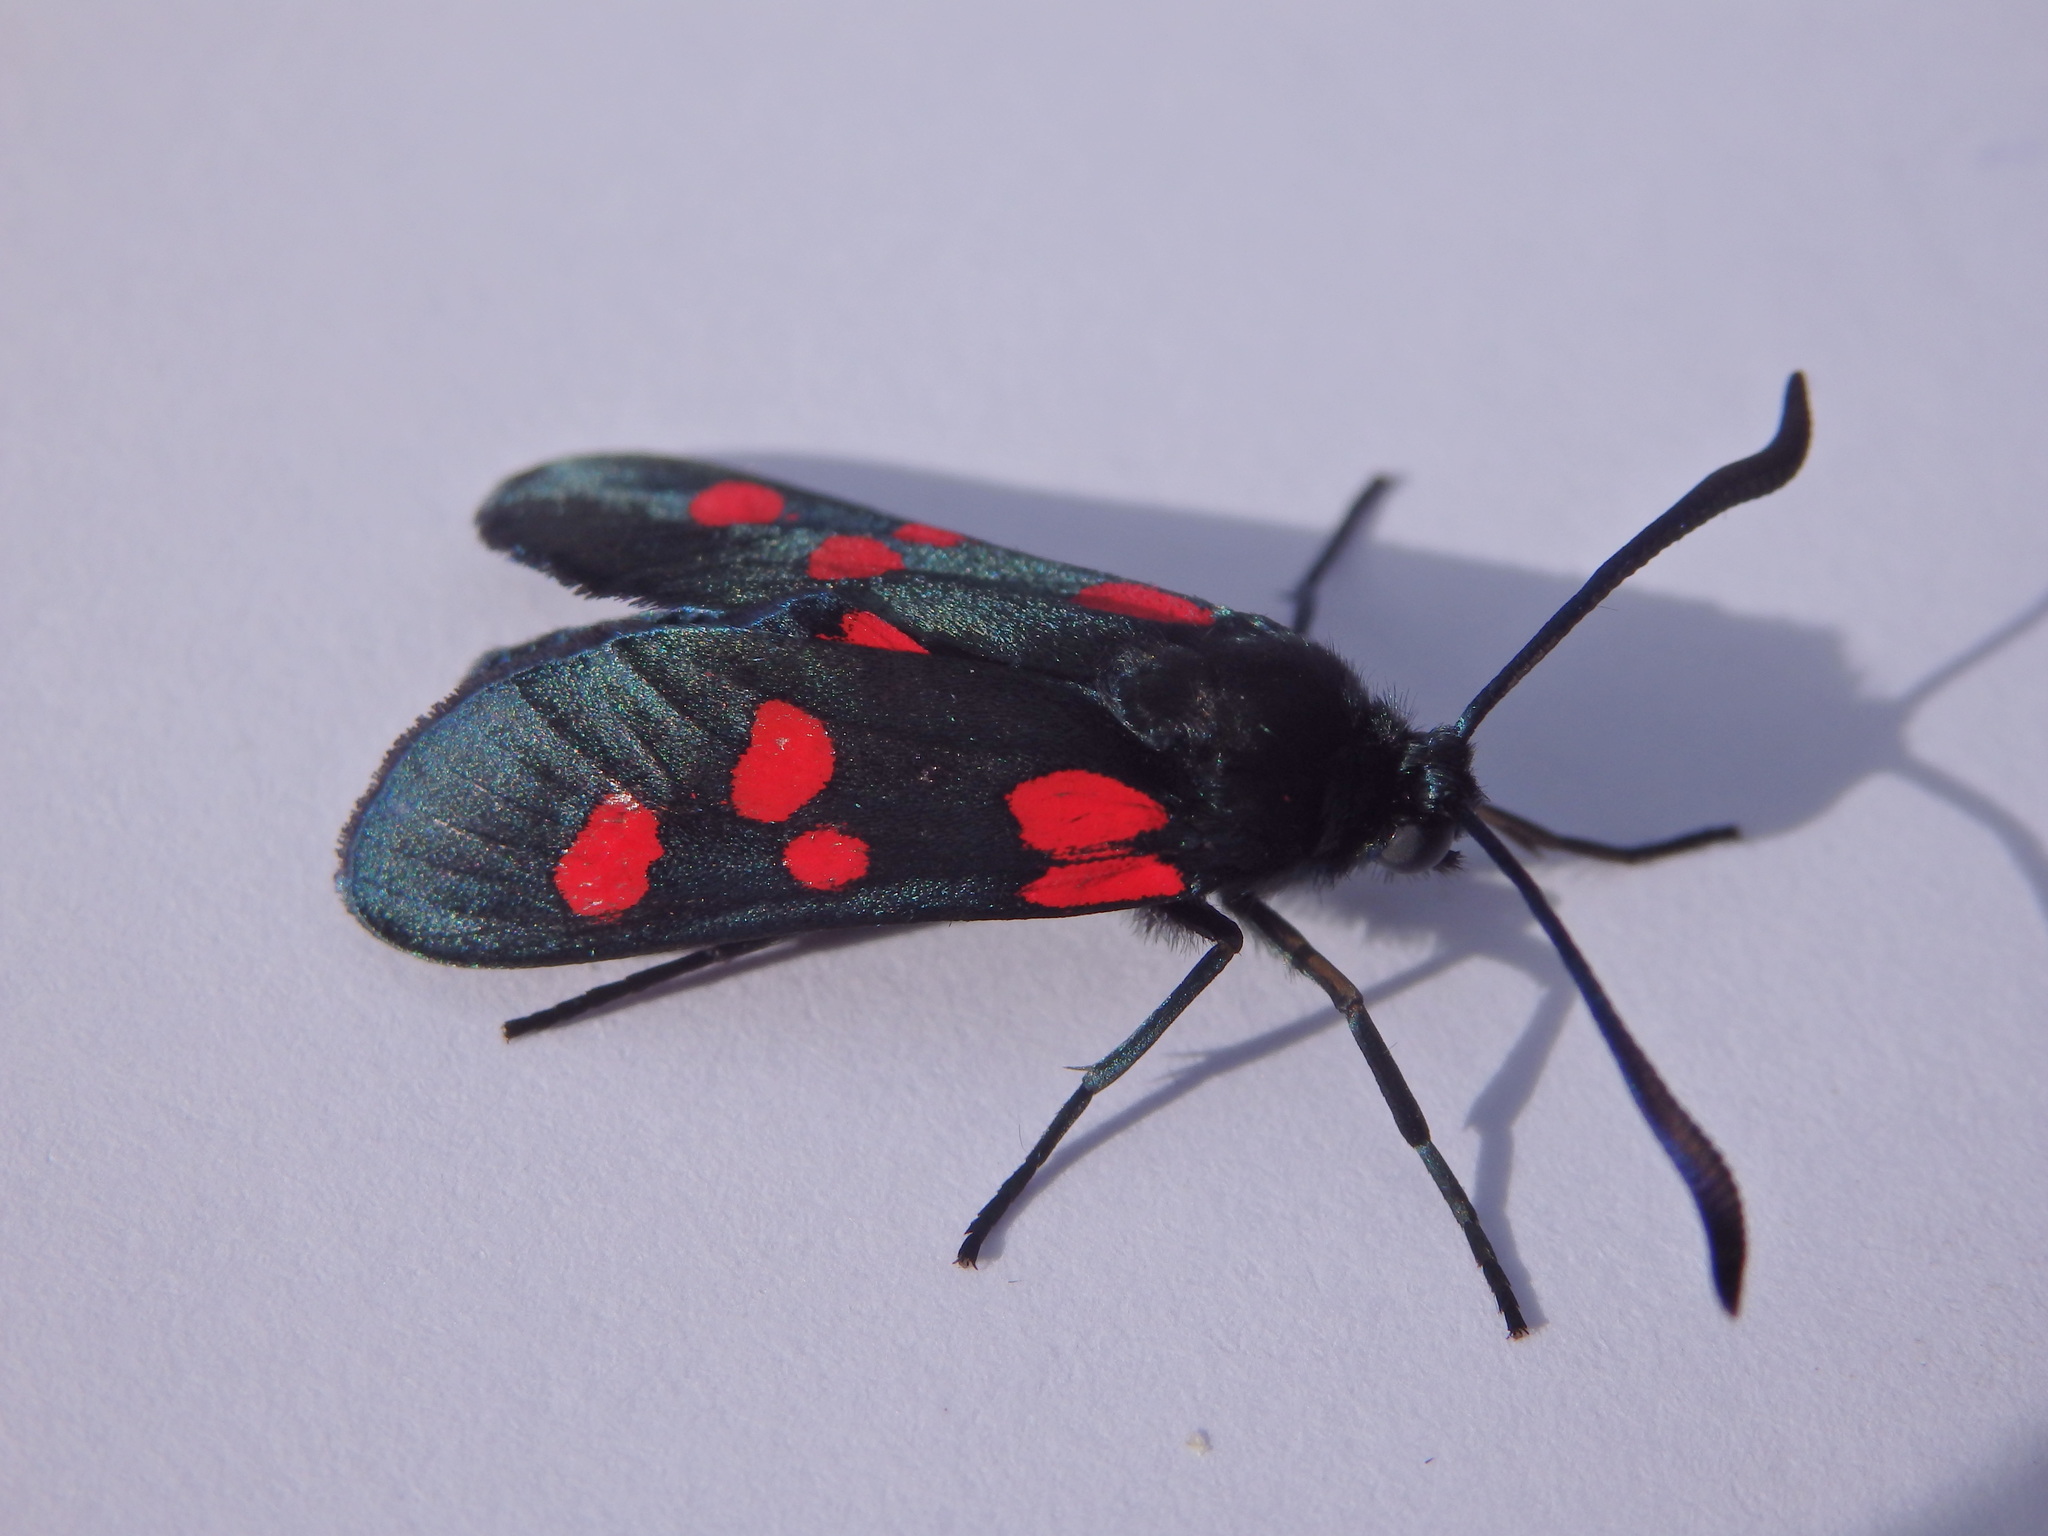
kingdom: Animalia
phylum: Arthropoda
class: Insecta
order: Lepidoptera
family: Zygaenidae
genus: Zygaena
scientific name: Zygaena trifolii
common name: Five-spot burnet
